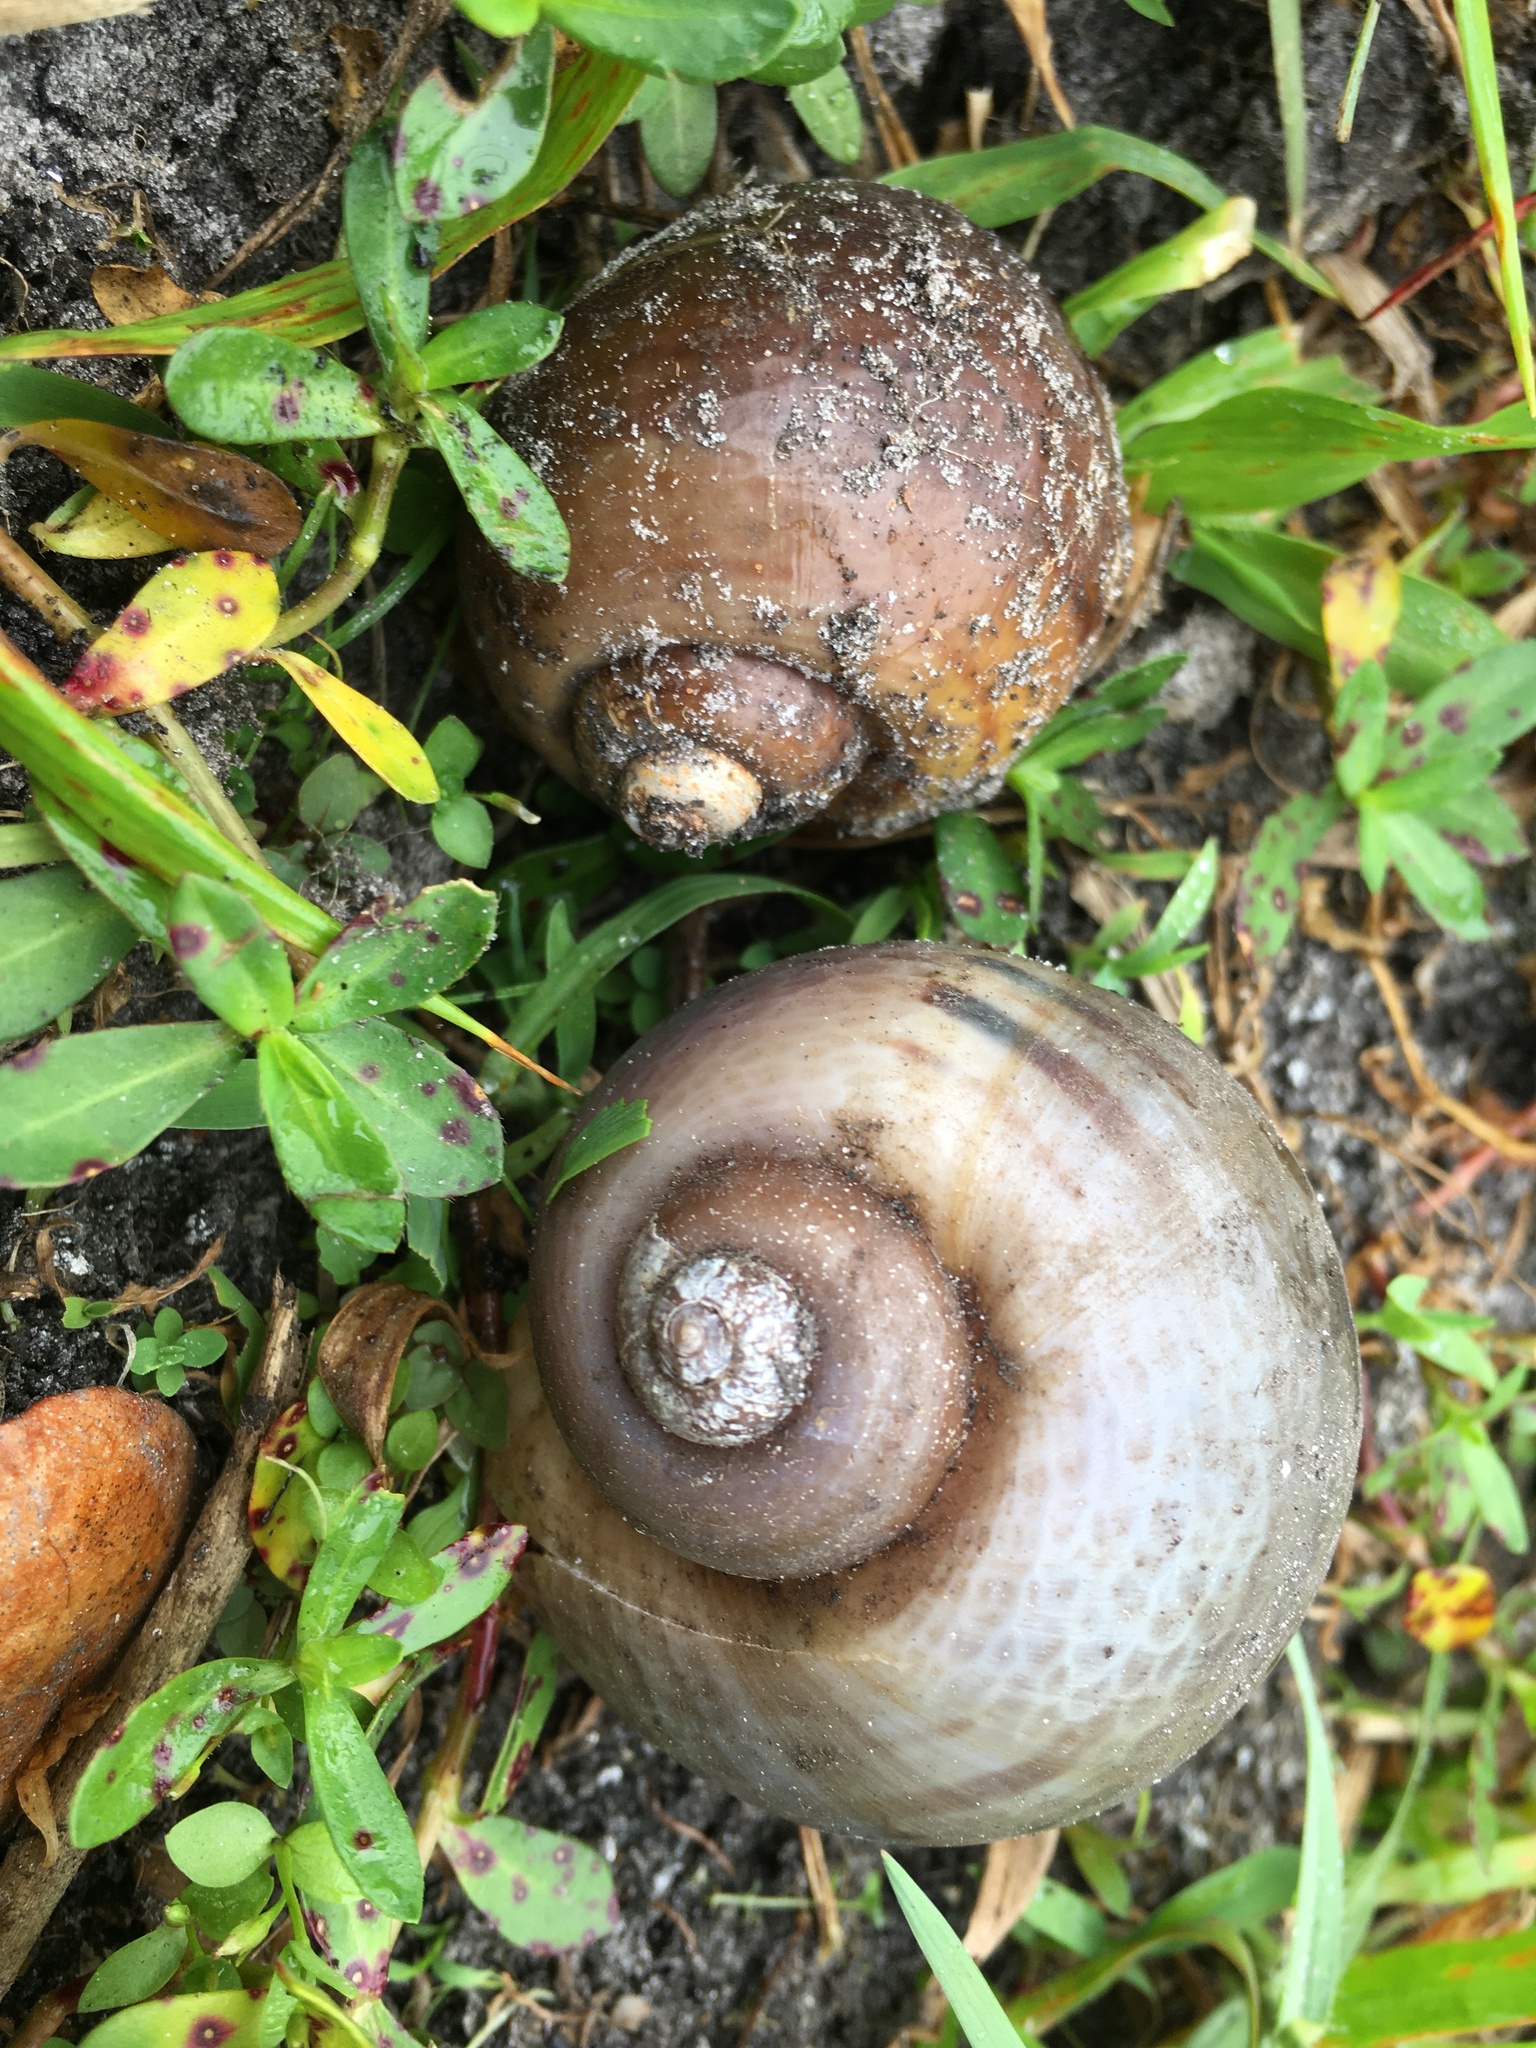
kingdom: Animalia
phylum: Mollusca
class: Gastropoda
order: Architaenioglossa
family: Ampullariidae
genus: Pomacea
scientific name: Pomacea maculata
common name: Giant applesnail
